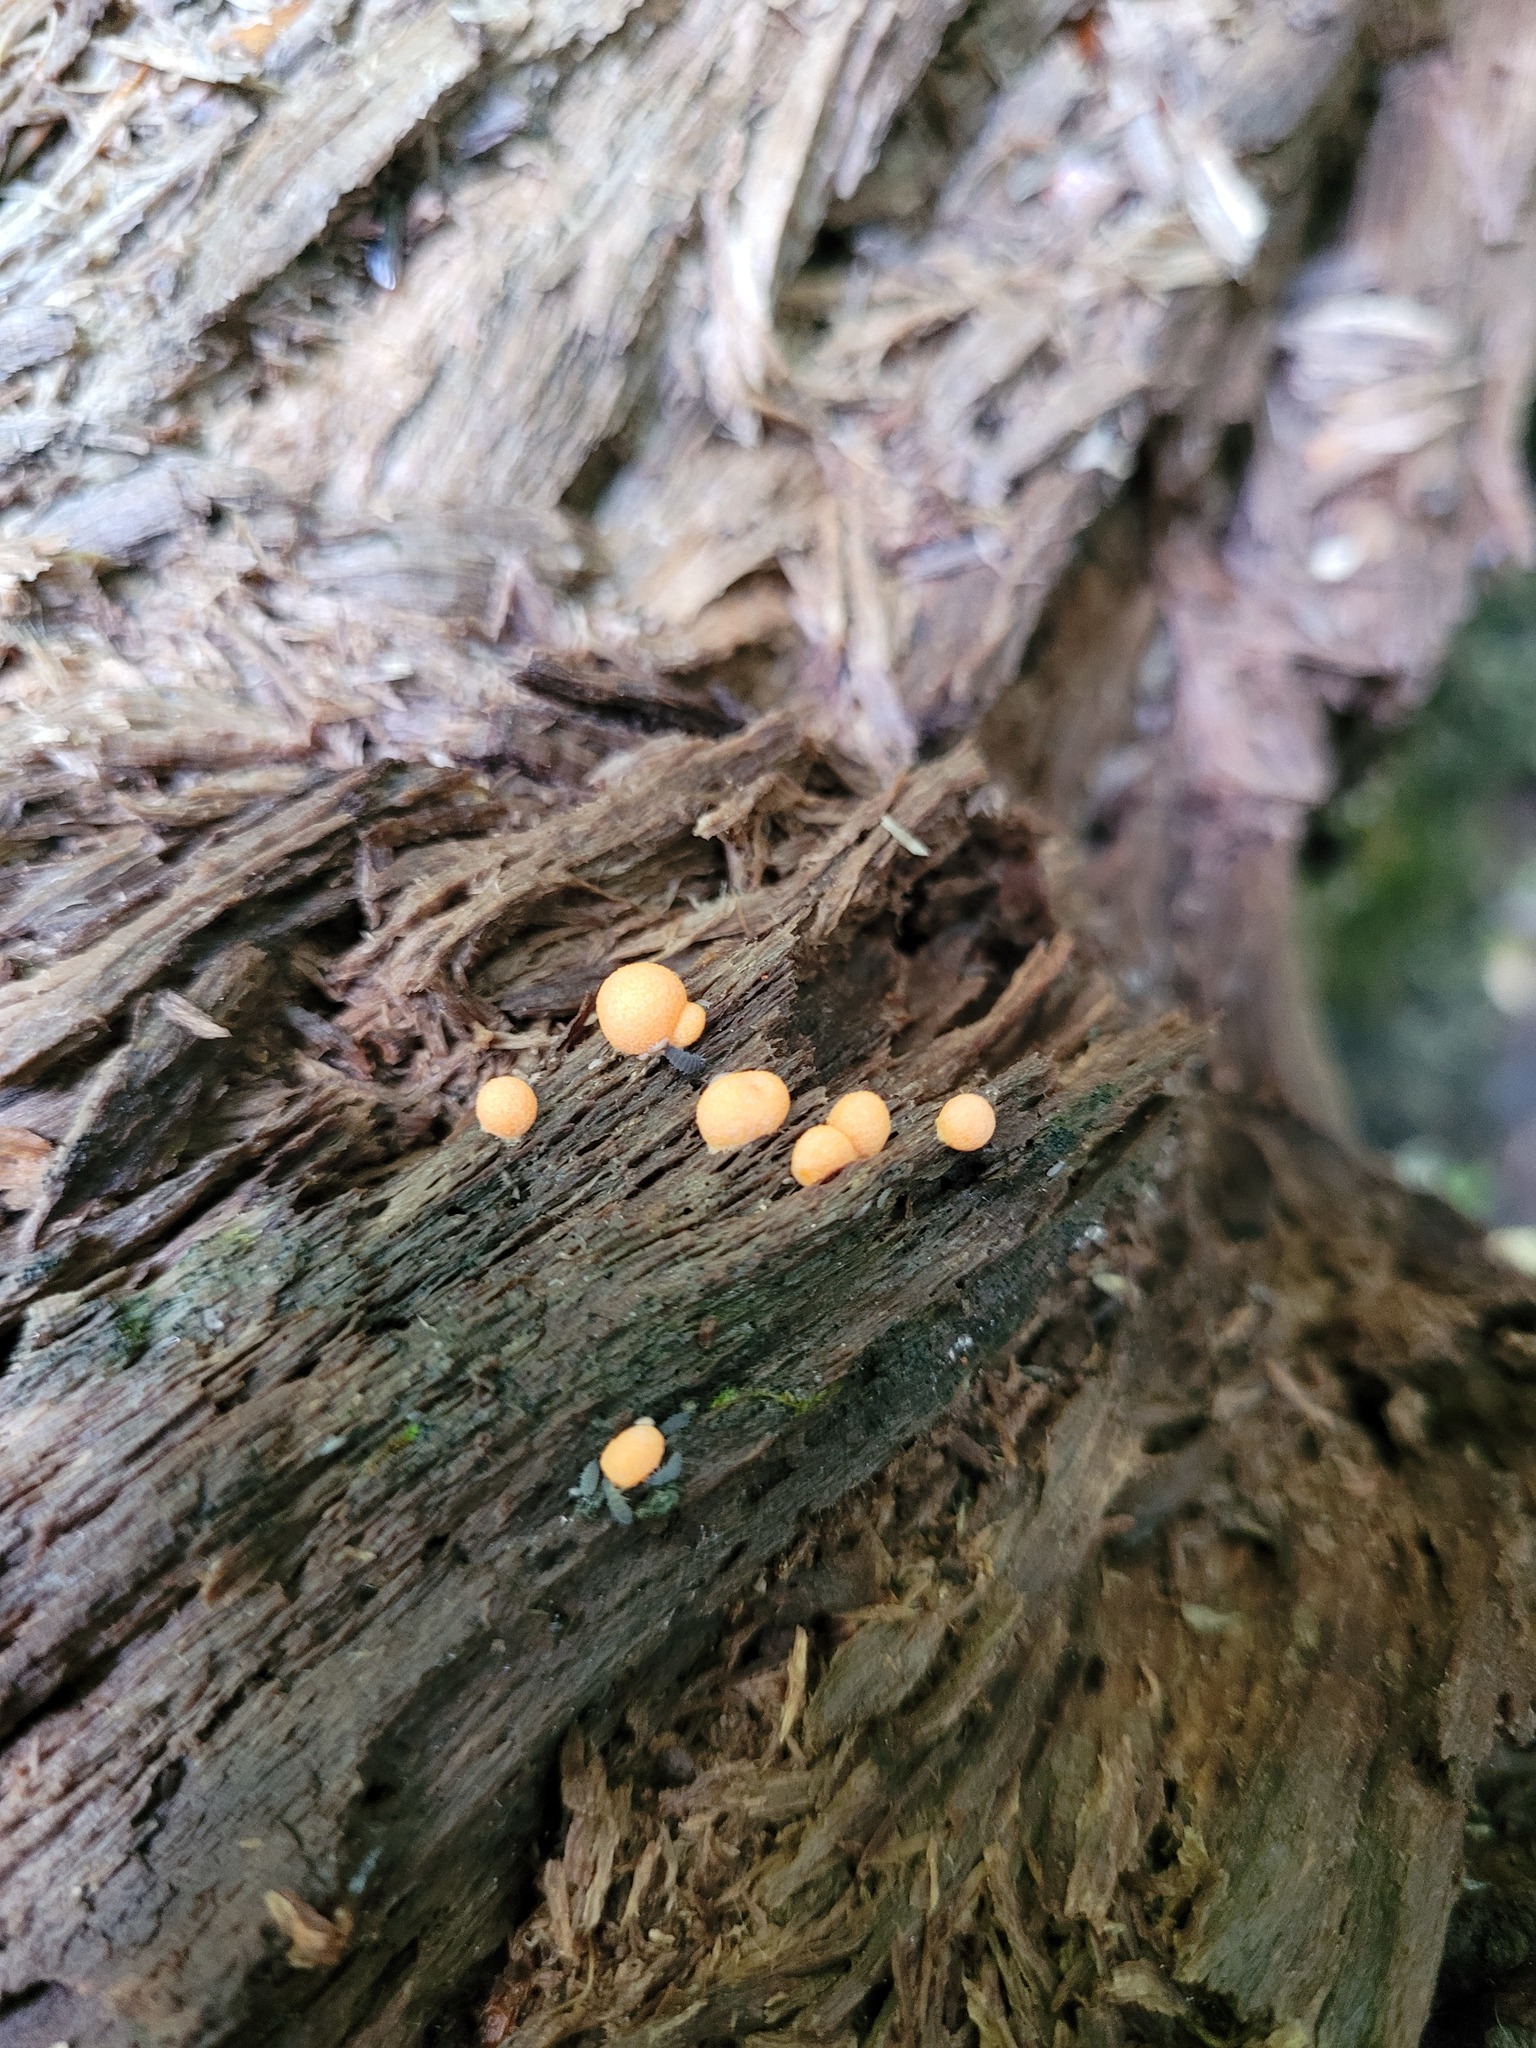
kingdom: Protozoa
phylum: Mycetozoa
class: Myxomycetes
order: Cribrariales
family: Tubiferaceae
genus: Lycogala
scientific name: Lycogala epidendrum
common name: Wolf's milk
